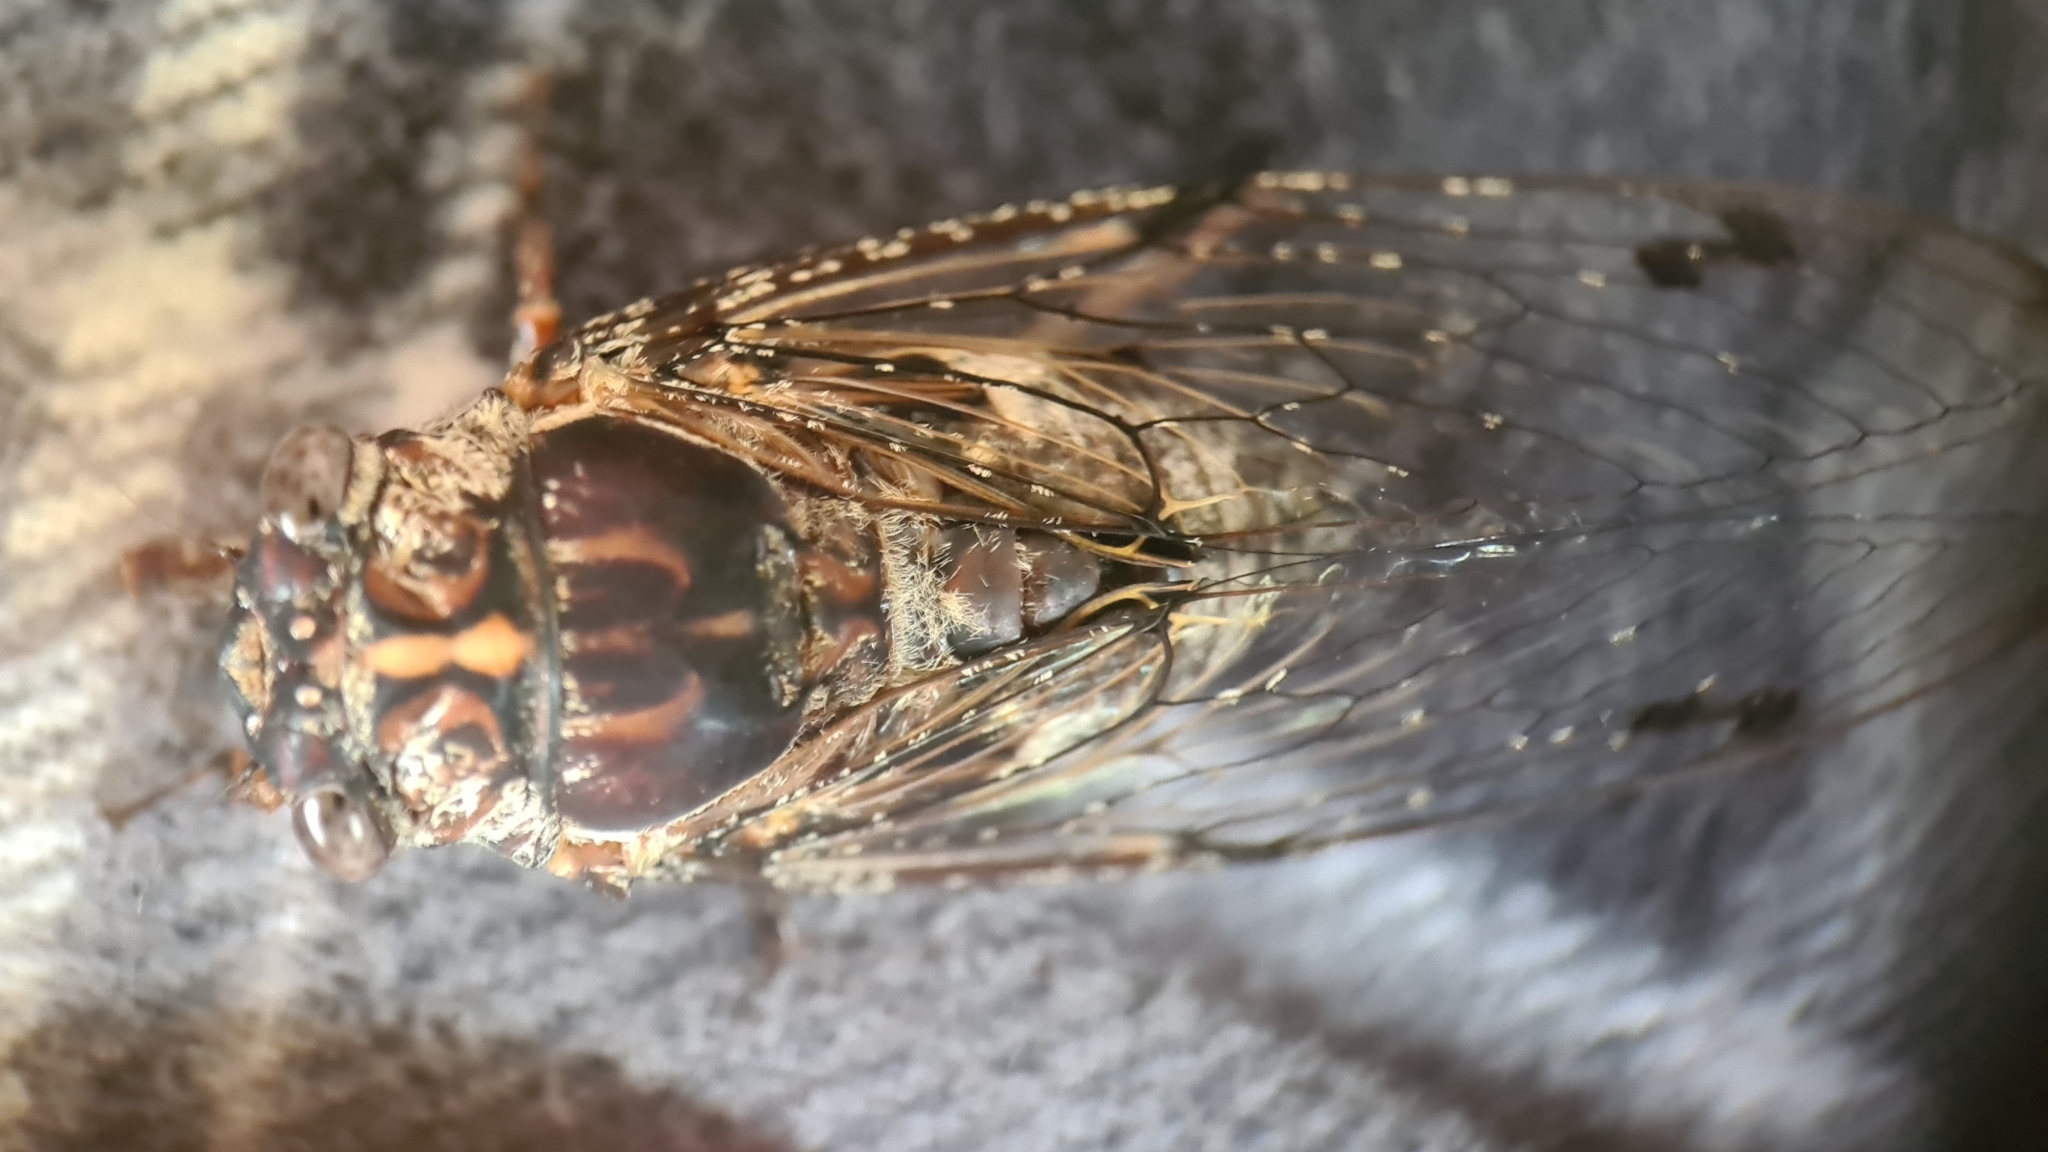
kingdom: Animalia
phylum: Arthropoda
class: Insecta
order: Hemiptera
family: Cicadidae
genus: Aleeta
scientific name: Aleeta curvicosta
